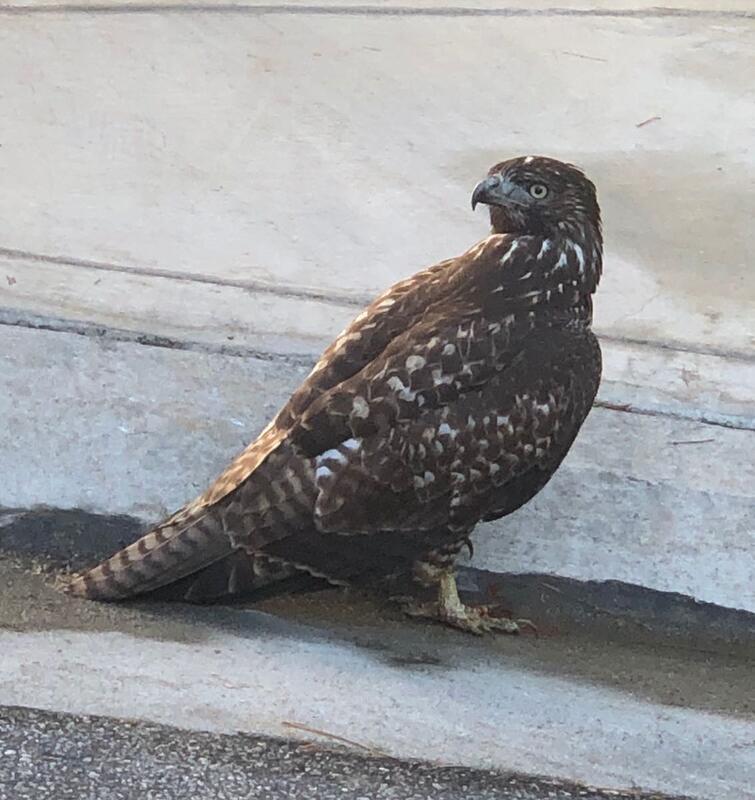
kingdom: Animalia
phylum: Chordata
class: Aves
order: Accipitriformes
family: Accipitridae
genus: Buteo
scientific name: Buteo jamaicensis
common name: Red-tailed hawk
